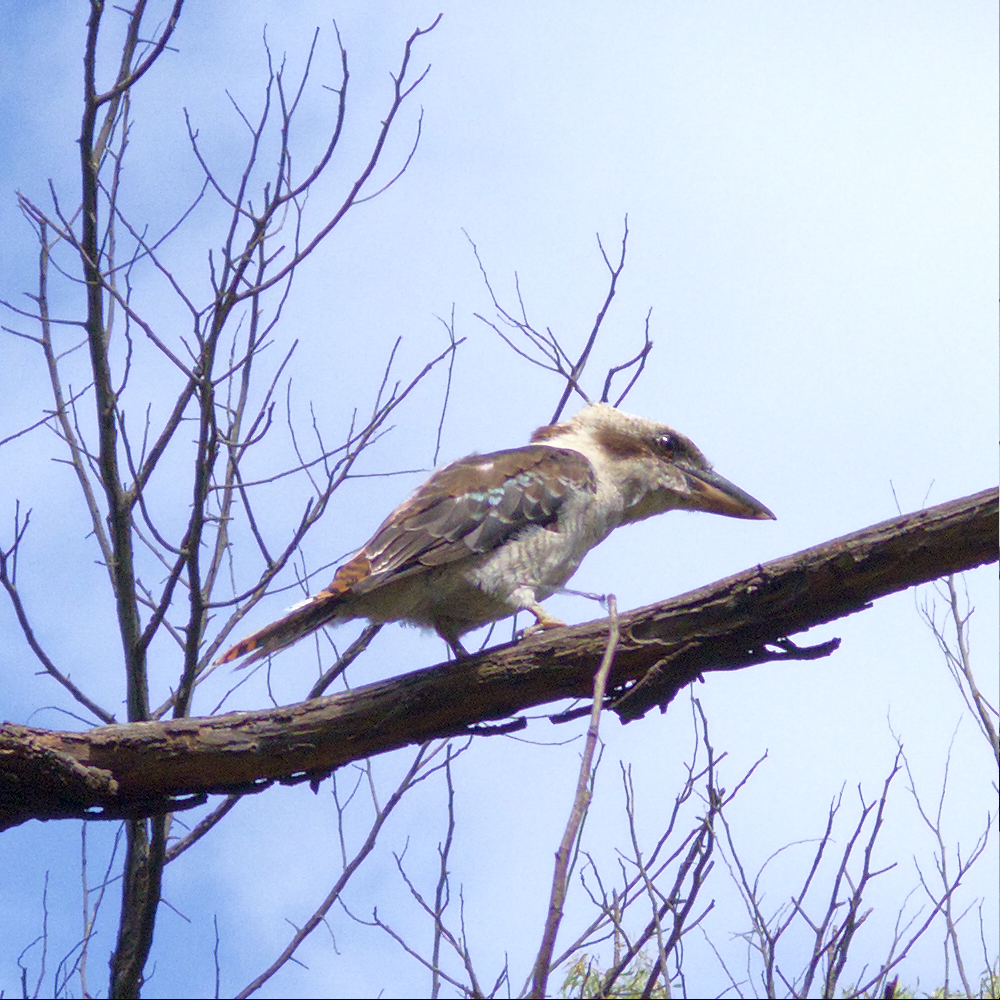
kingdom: Animalia
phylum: Chordata
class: Aves
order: Coraciiformes
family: Alcedinidae
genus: Dacelo
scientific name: Dacelo novaeguineae
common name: Laughing kookaburra
